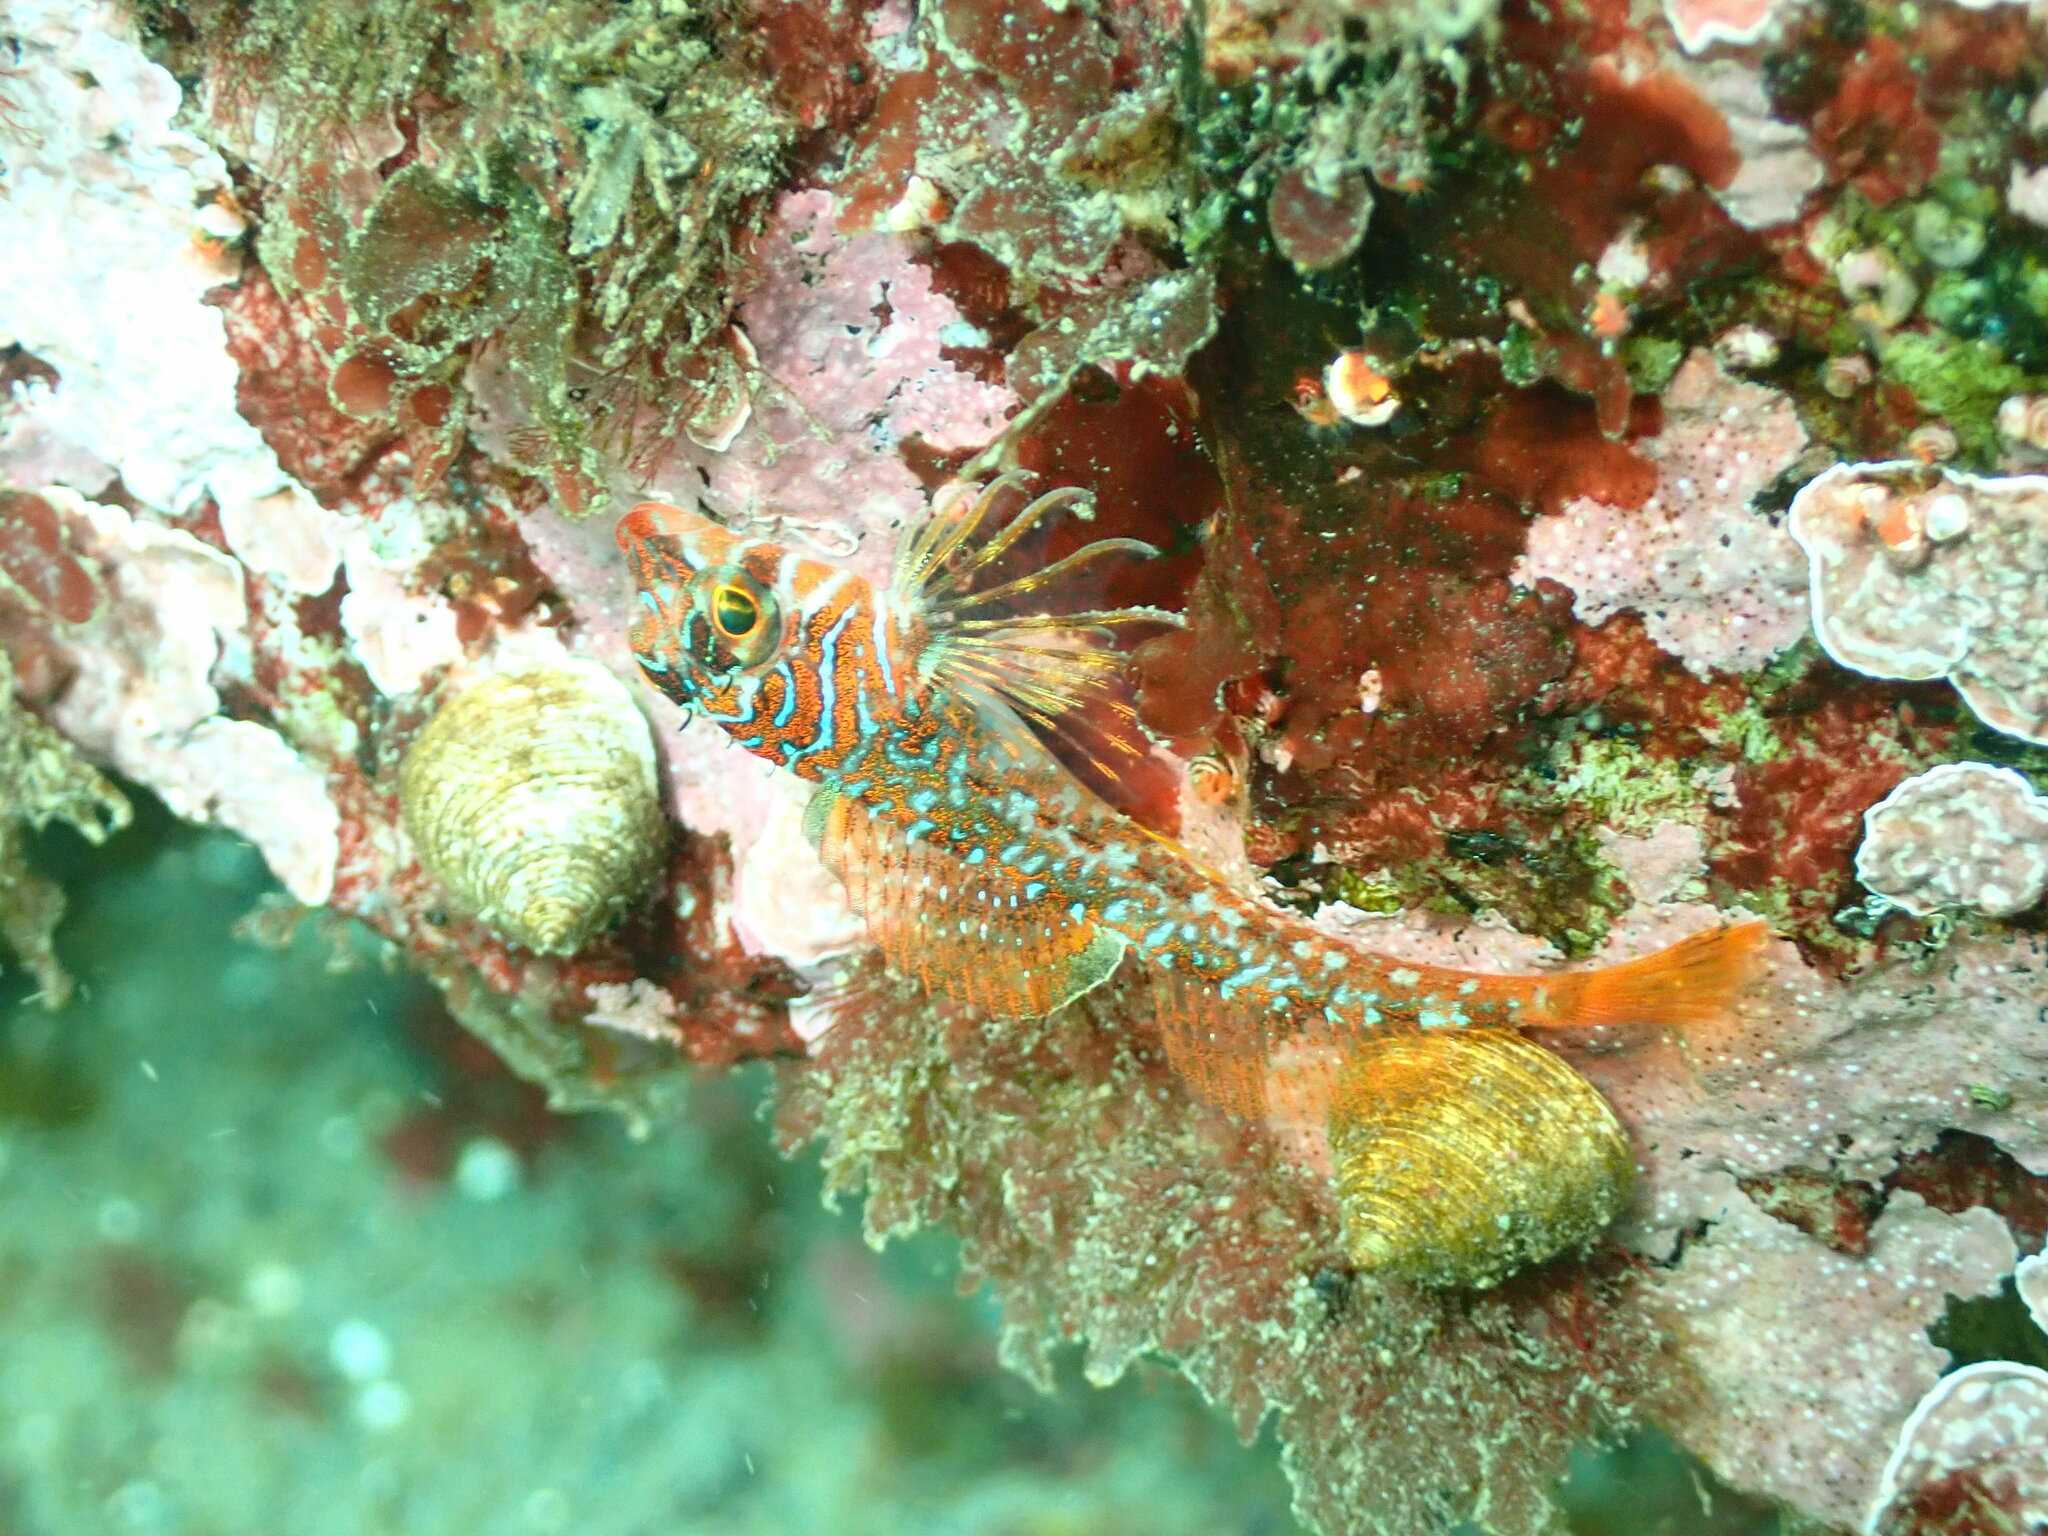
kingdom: Animalia
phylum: Chordata
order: Scorpaeniformes
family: Cottidae
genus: Jordania
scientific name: Jordania zonope
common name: Longfin sculpin
